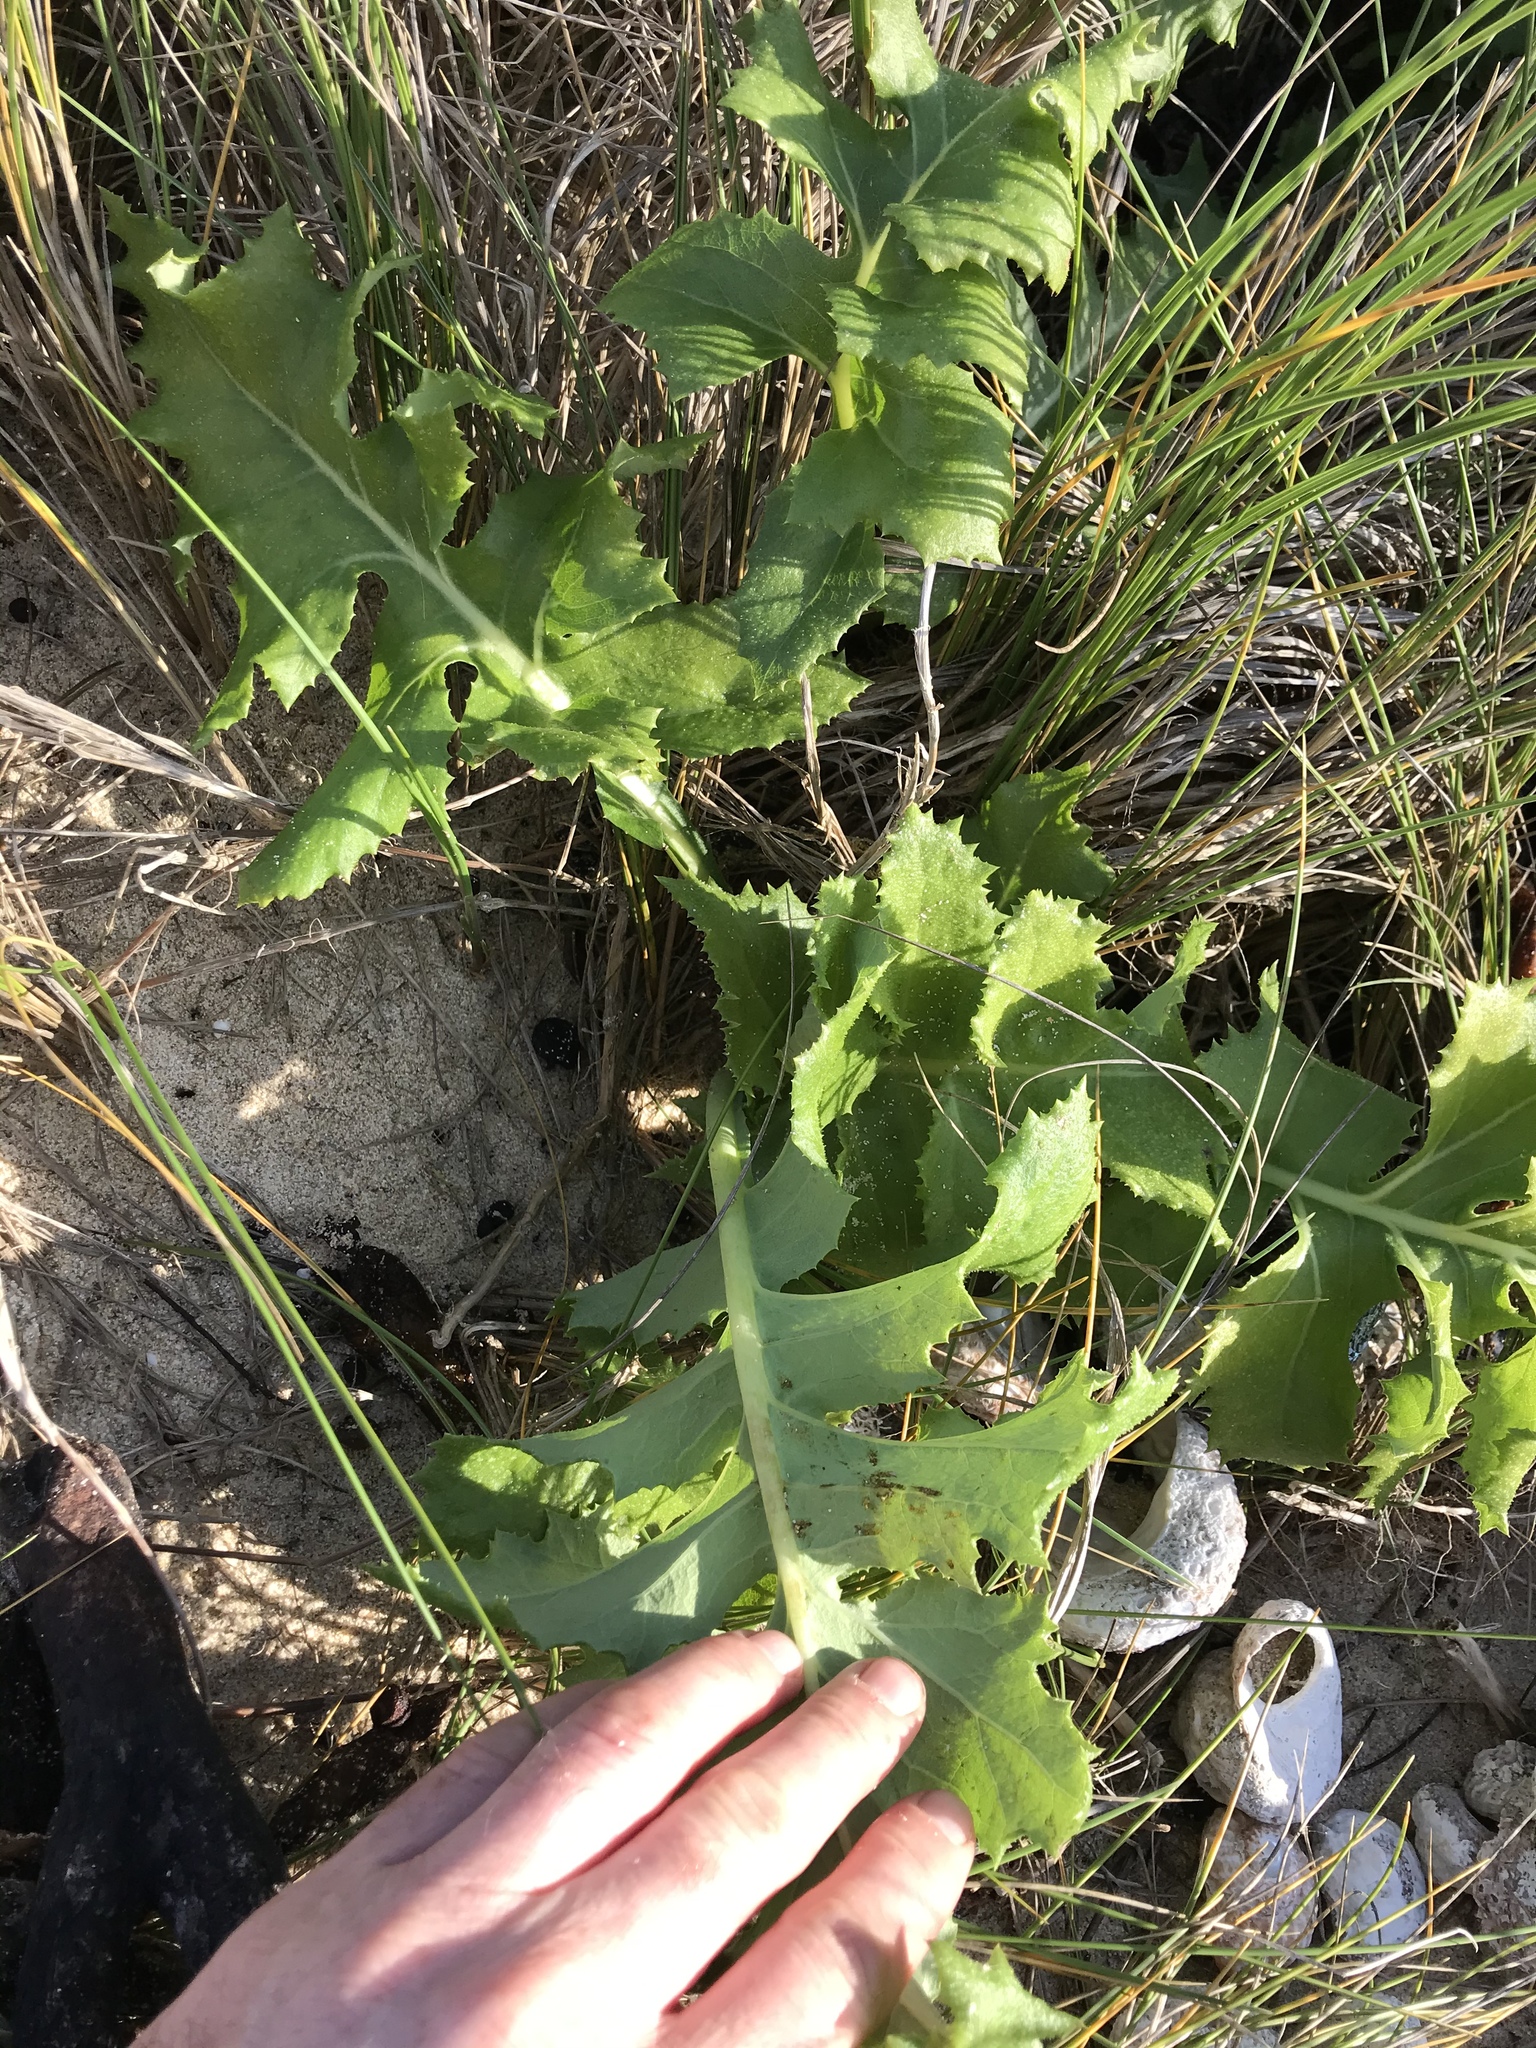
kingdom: Plantae
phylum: Tracheophyta
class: Magnoliopsida
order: Asterales
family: Asteraceae
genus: Sonchus
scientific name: Sonchus grandifolius
